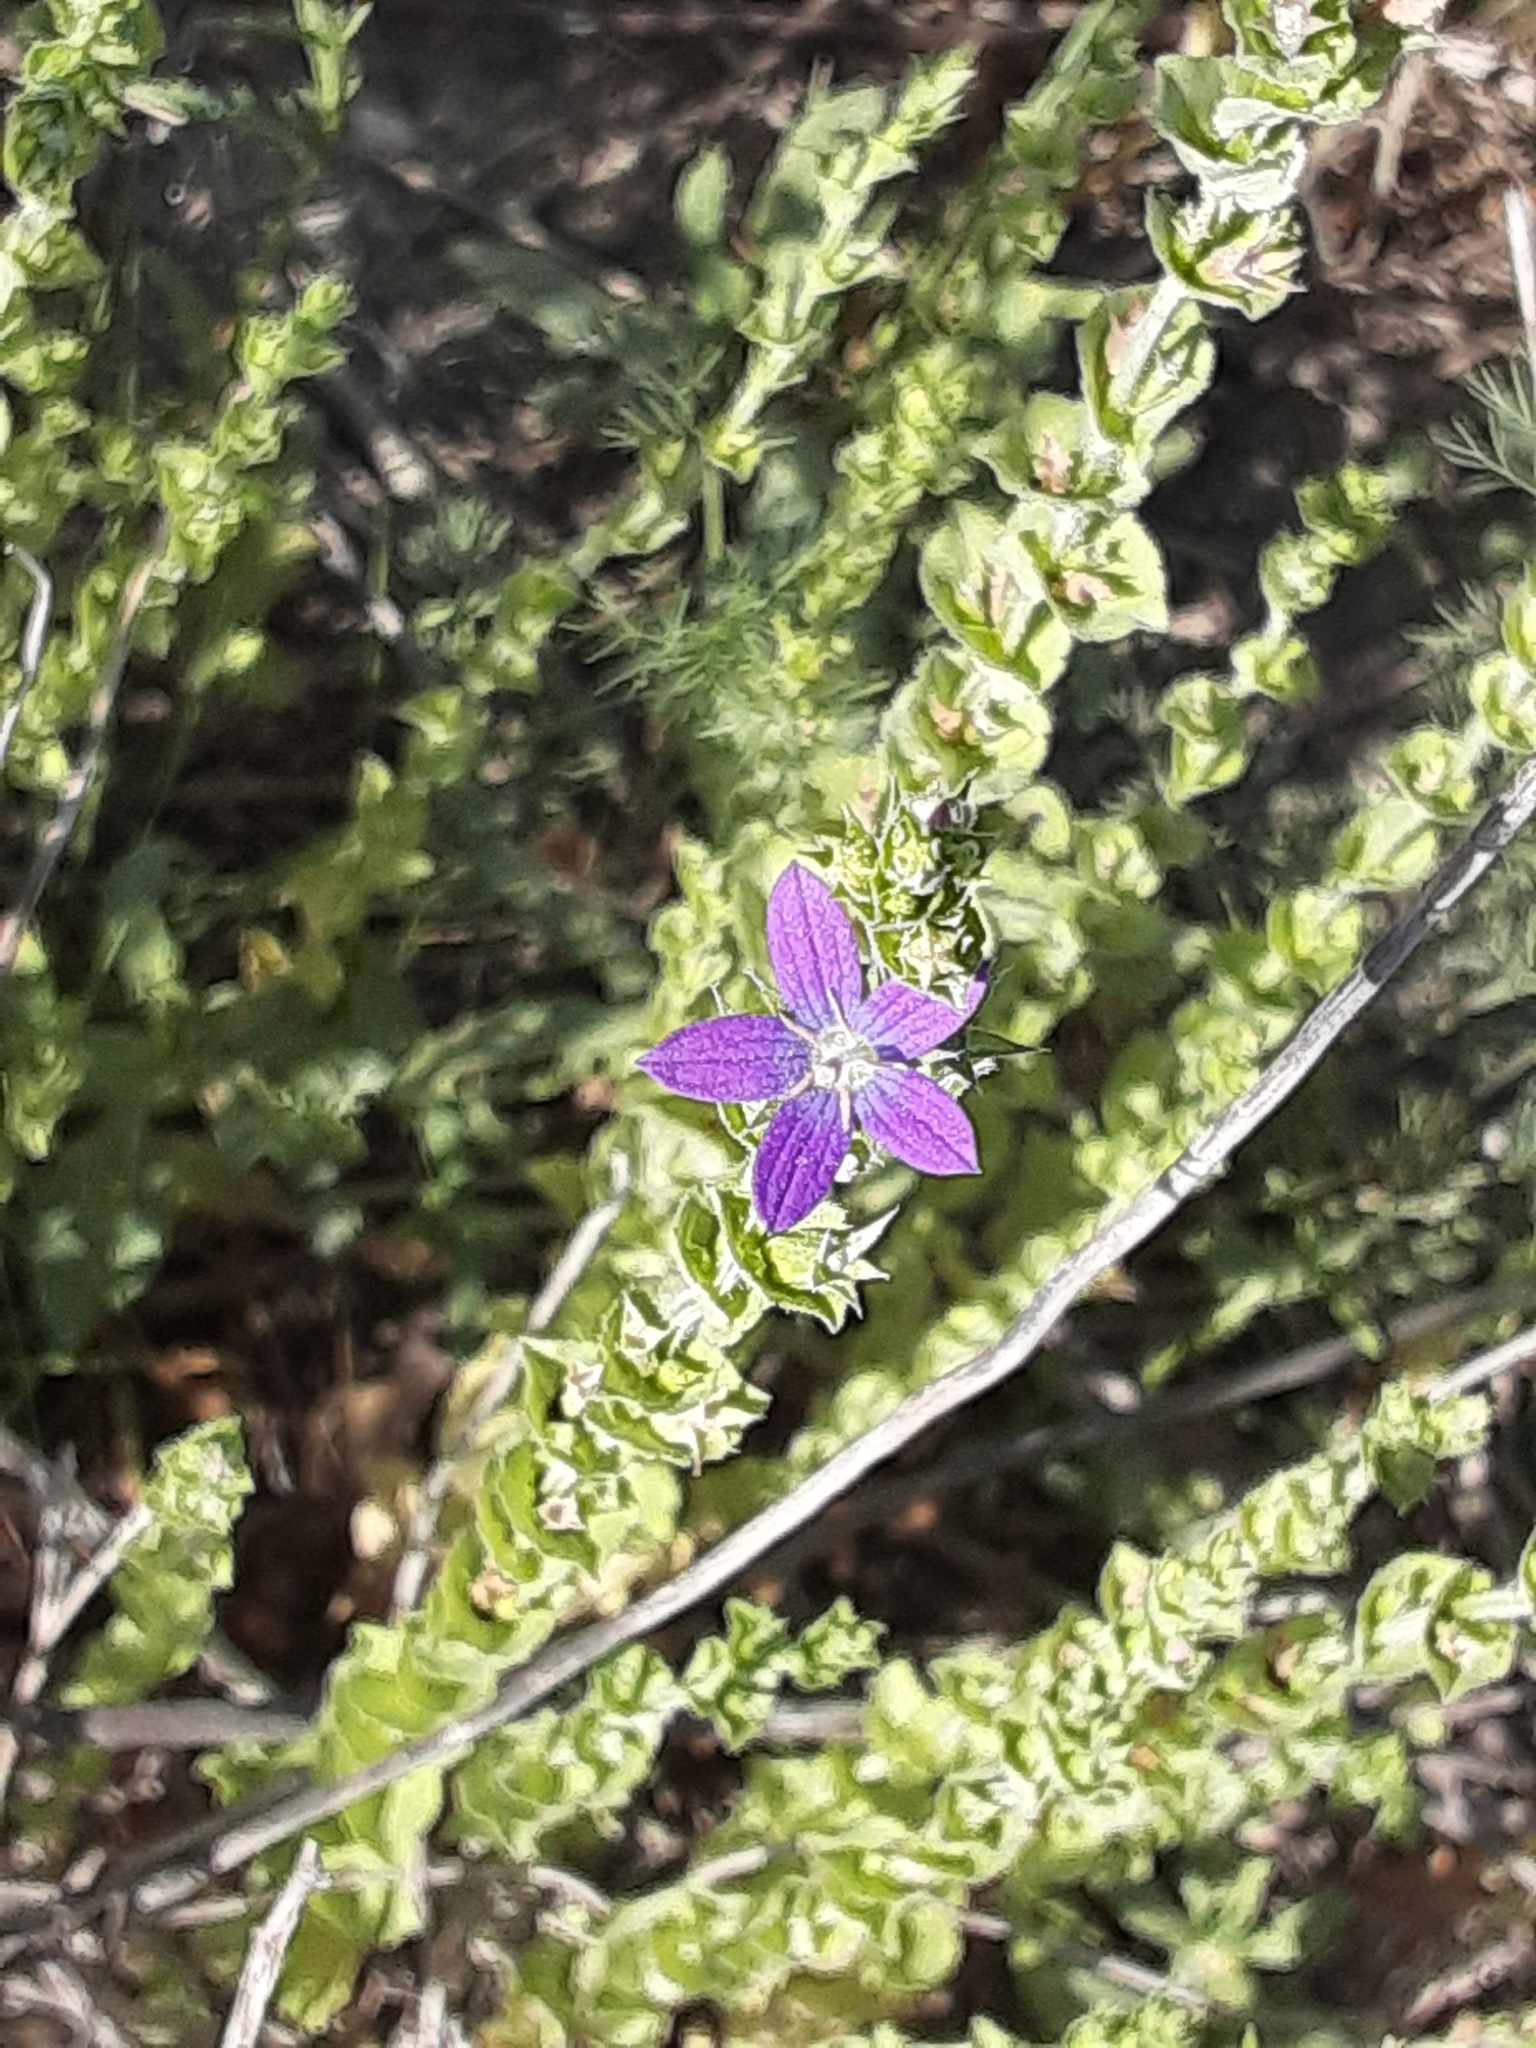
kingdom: Plantae
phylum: Tracheophyta
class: Magnoliopsida
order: Asterales
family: Campanulaceae
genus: Triodanis
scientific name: Triodanis perfoliata
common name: Clasping venus' looking-glass
